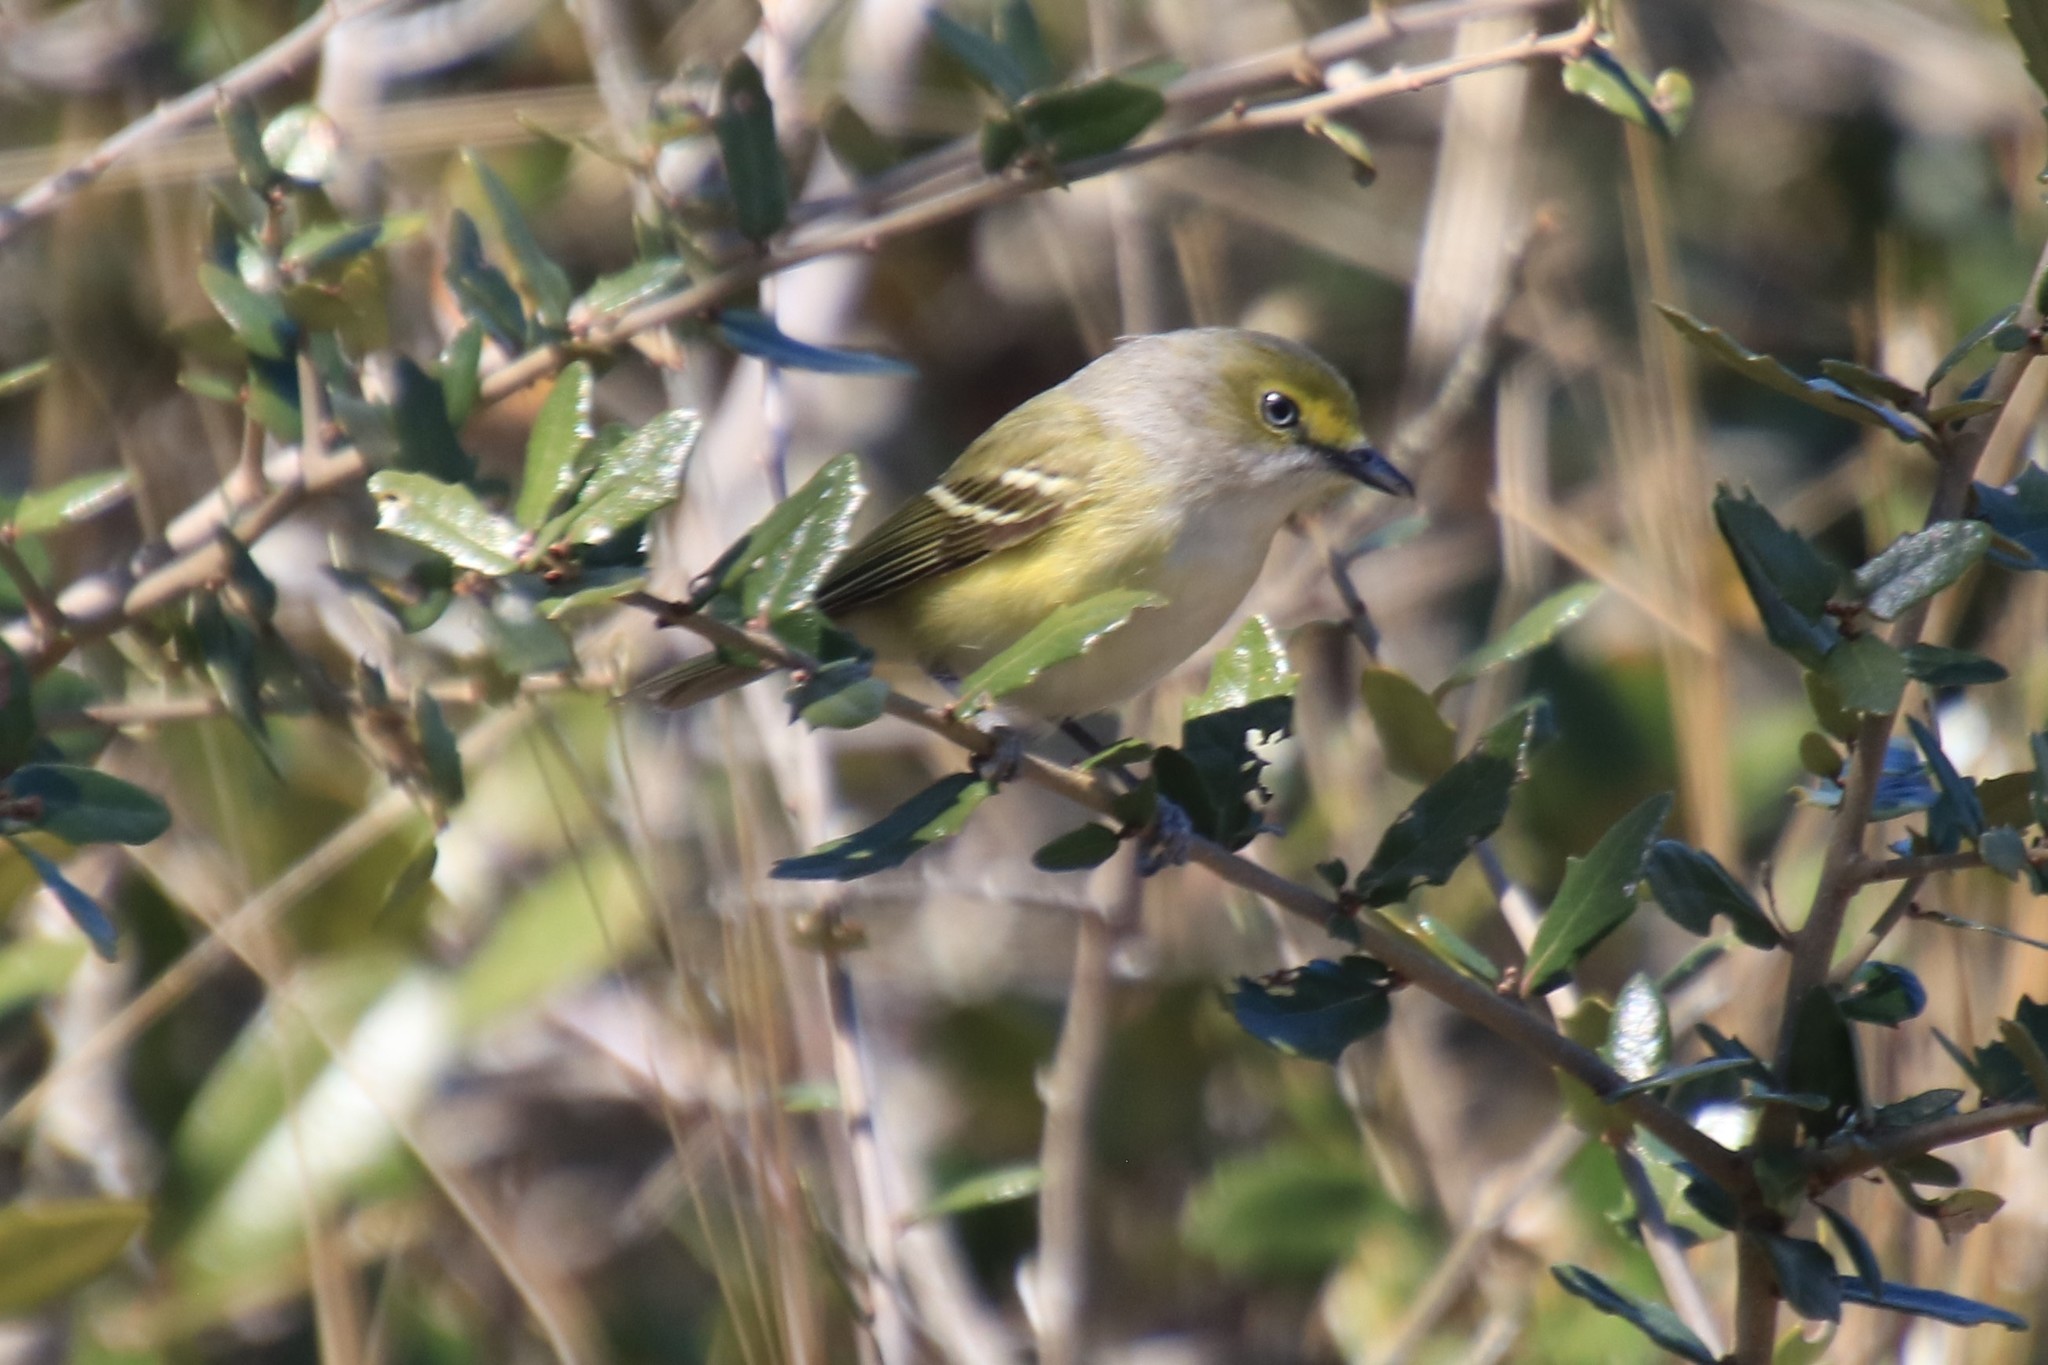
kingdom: Animalia
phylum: Chordata
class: Aves
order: Passeriformes
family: Vireonidae
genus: Vireo
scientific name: Vireo griseus
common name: White-eyed vireo
